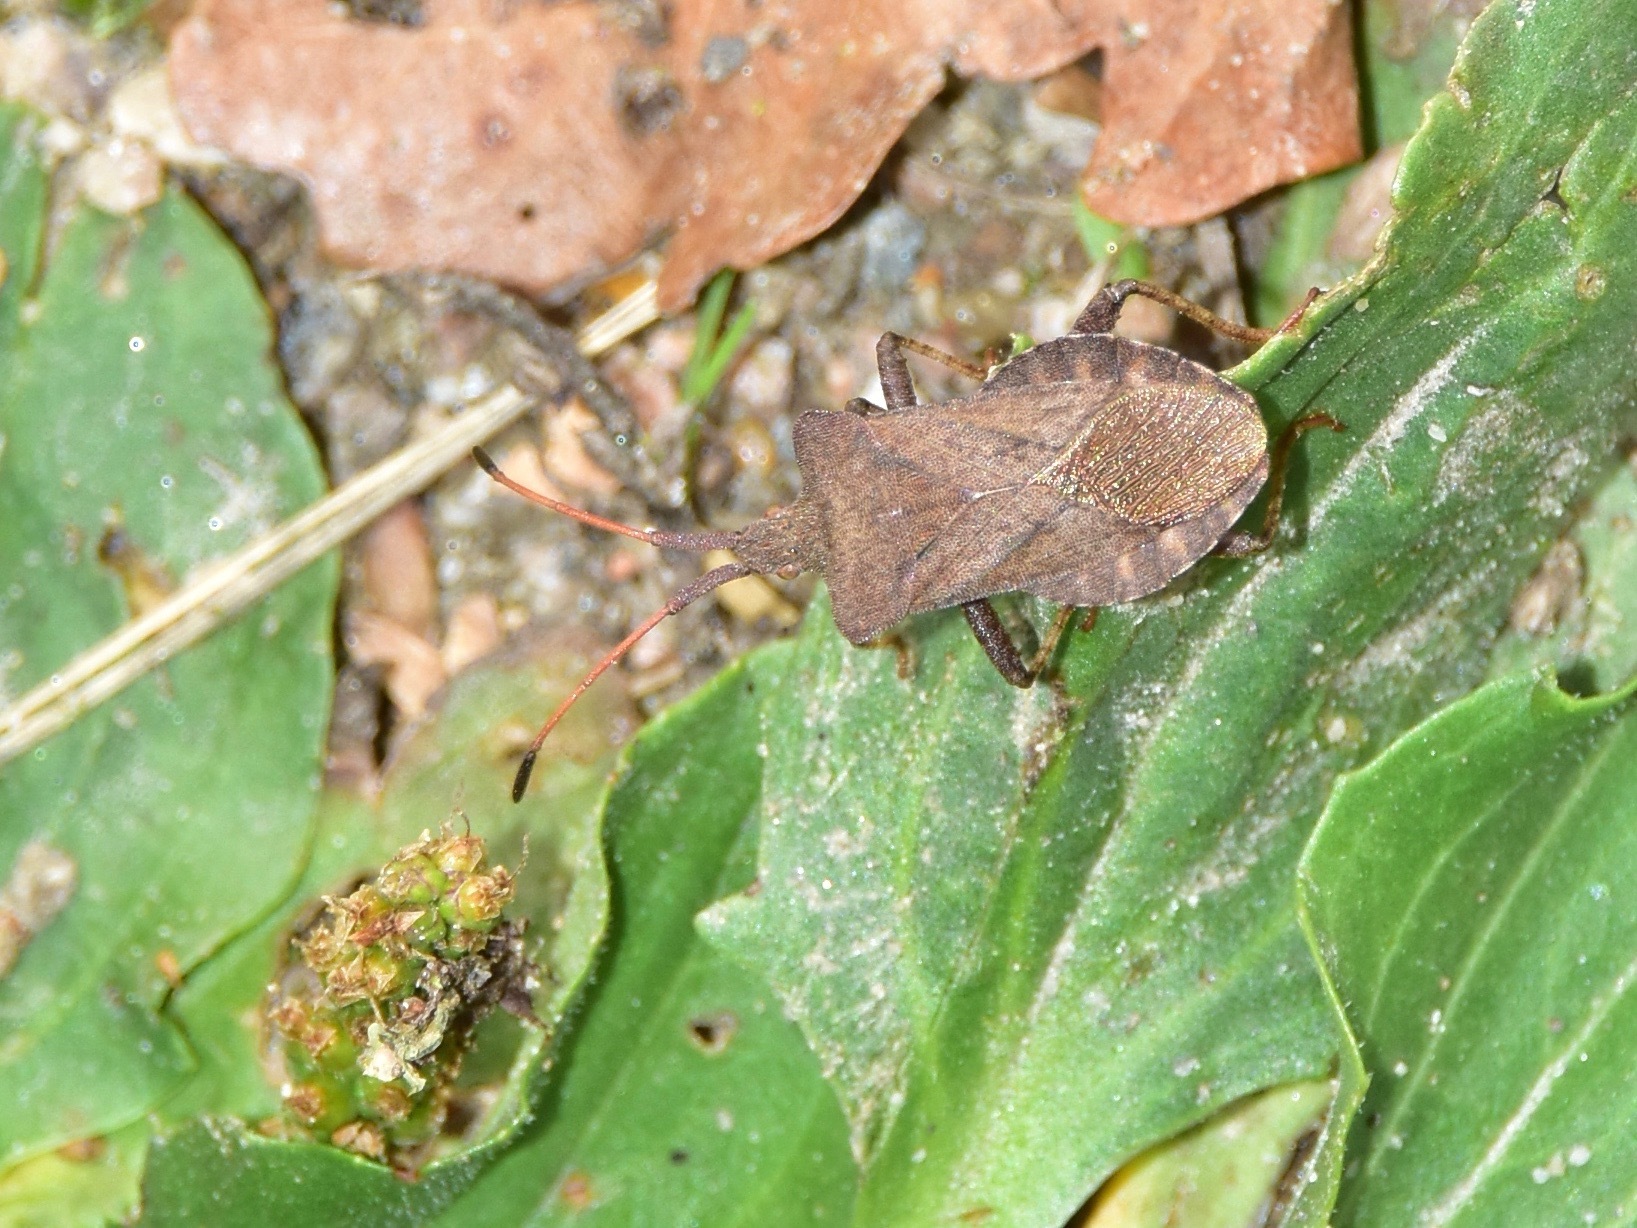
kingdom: Animalia
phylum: Arthropoda
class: Insecta
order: Hemiptera
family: Coreidae
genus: Coreus
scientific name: Coreus marginatus
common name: Dock bug
